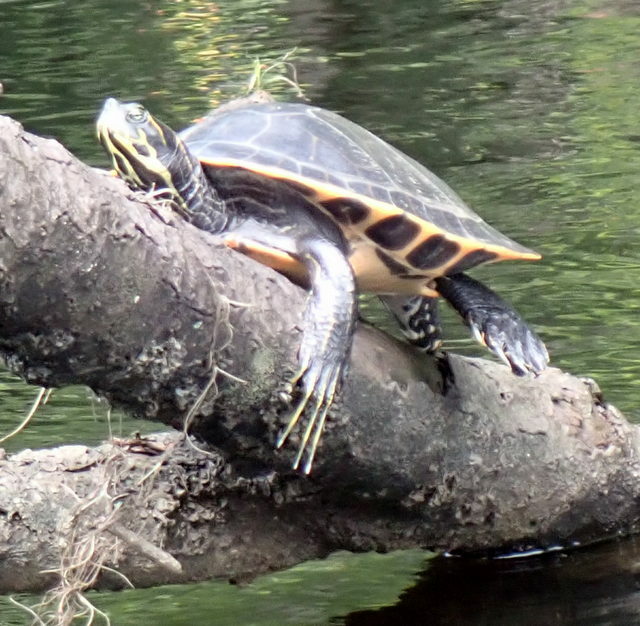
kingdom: Animalia
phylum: Chordata
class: Testudines
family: Emydidae
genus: Pseudemys
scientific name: Pseudemys concinna
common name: Eastern river cooter
